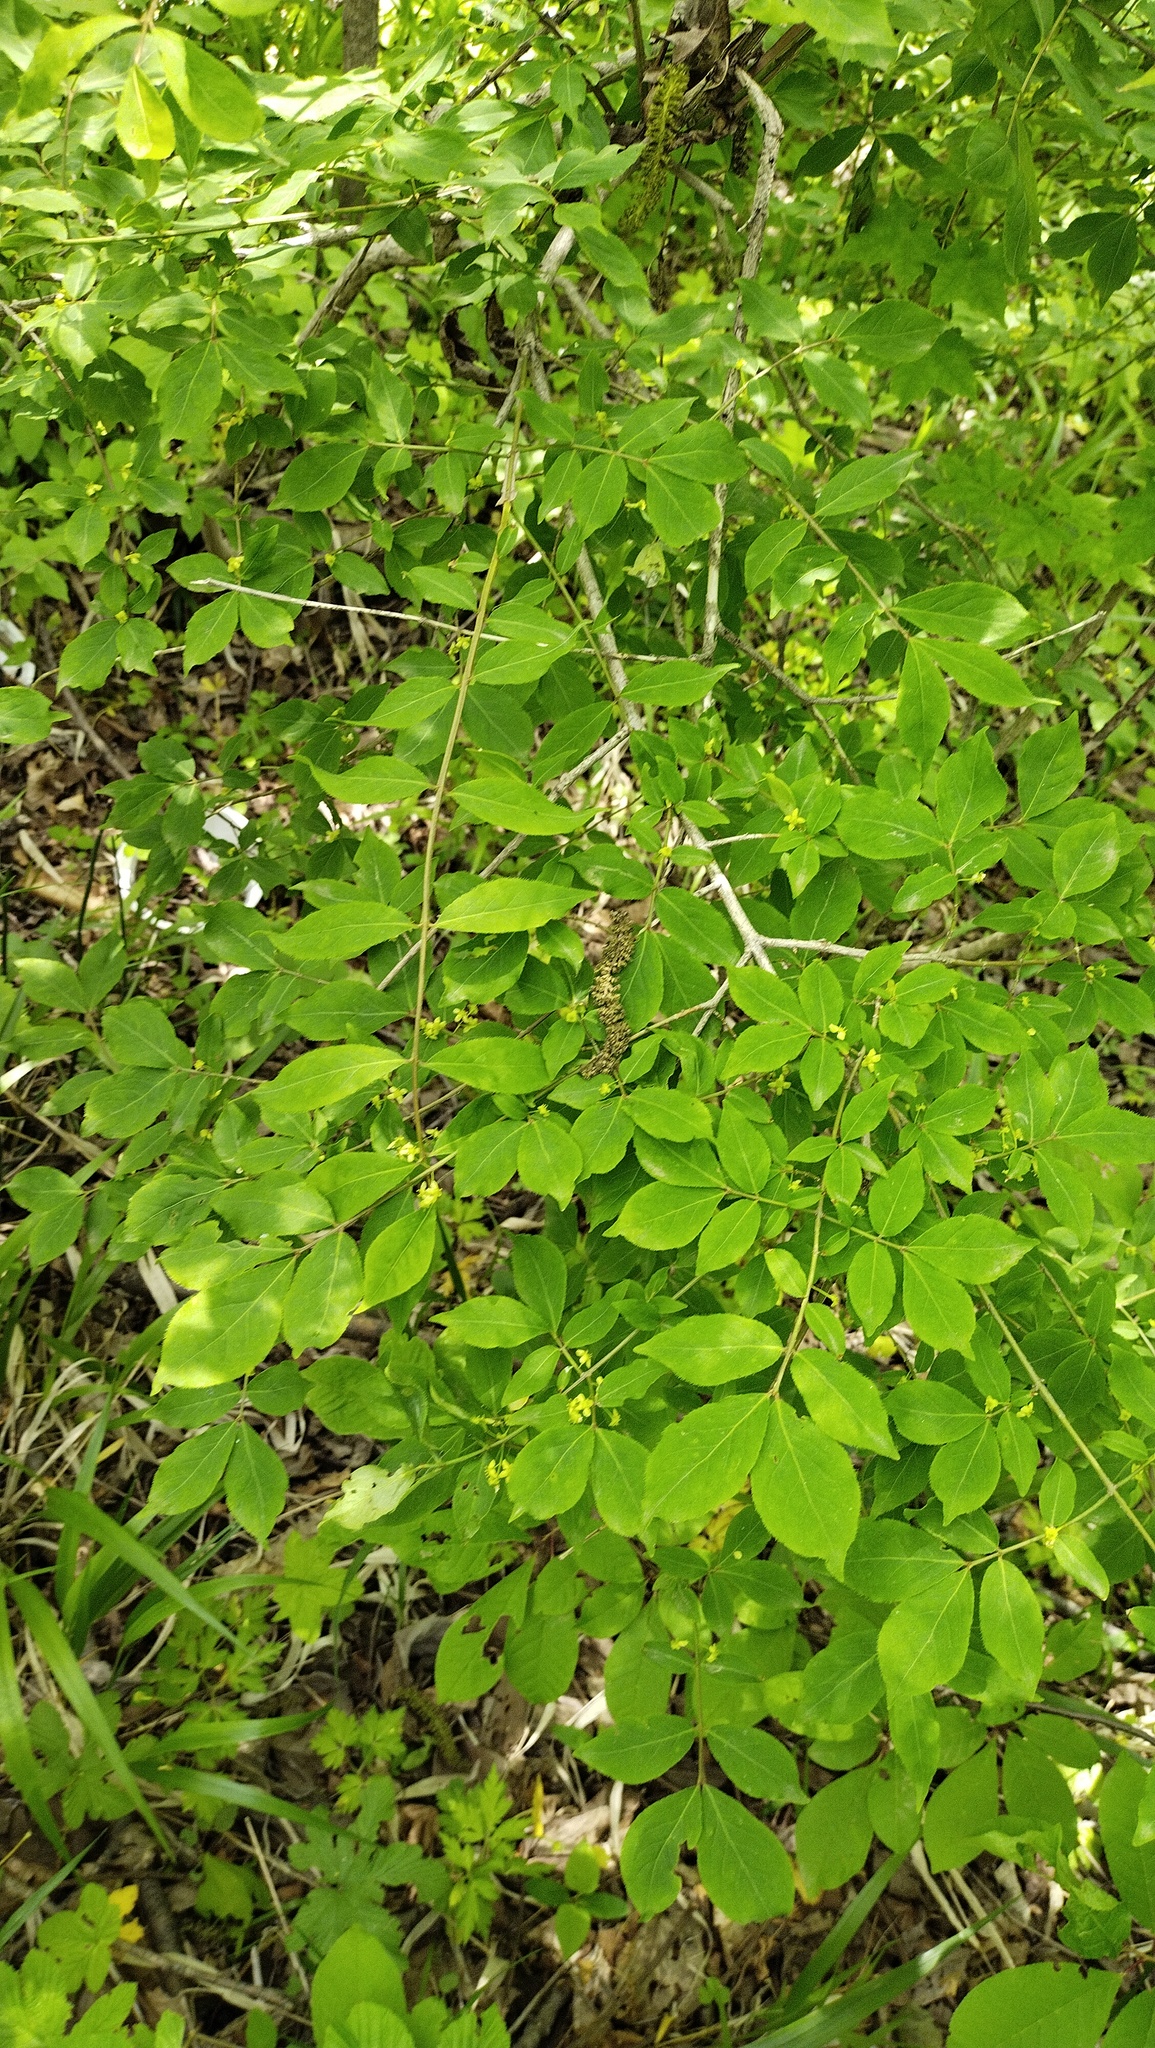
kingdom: Plantae
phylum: Tracheophyta
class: Magnoliopsida
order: Celastrales
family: Celastraceae
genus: Euonymus
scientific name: Euonymus alatus
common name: Winged euonymus
